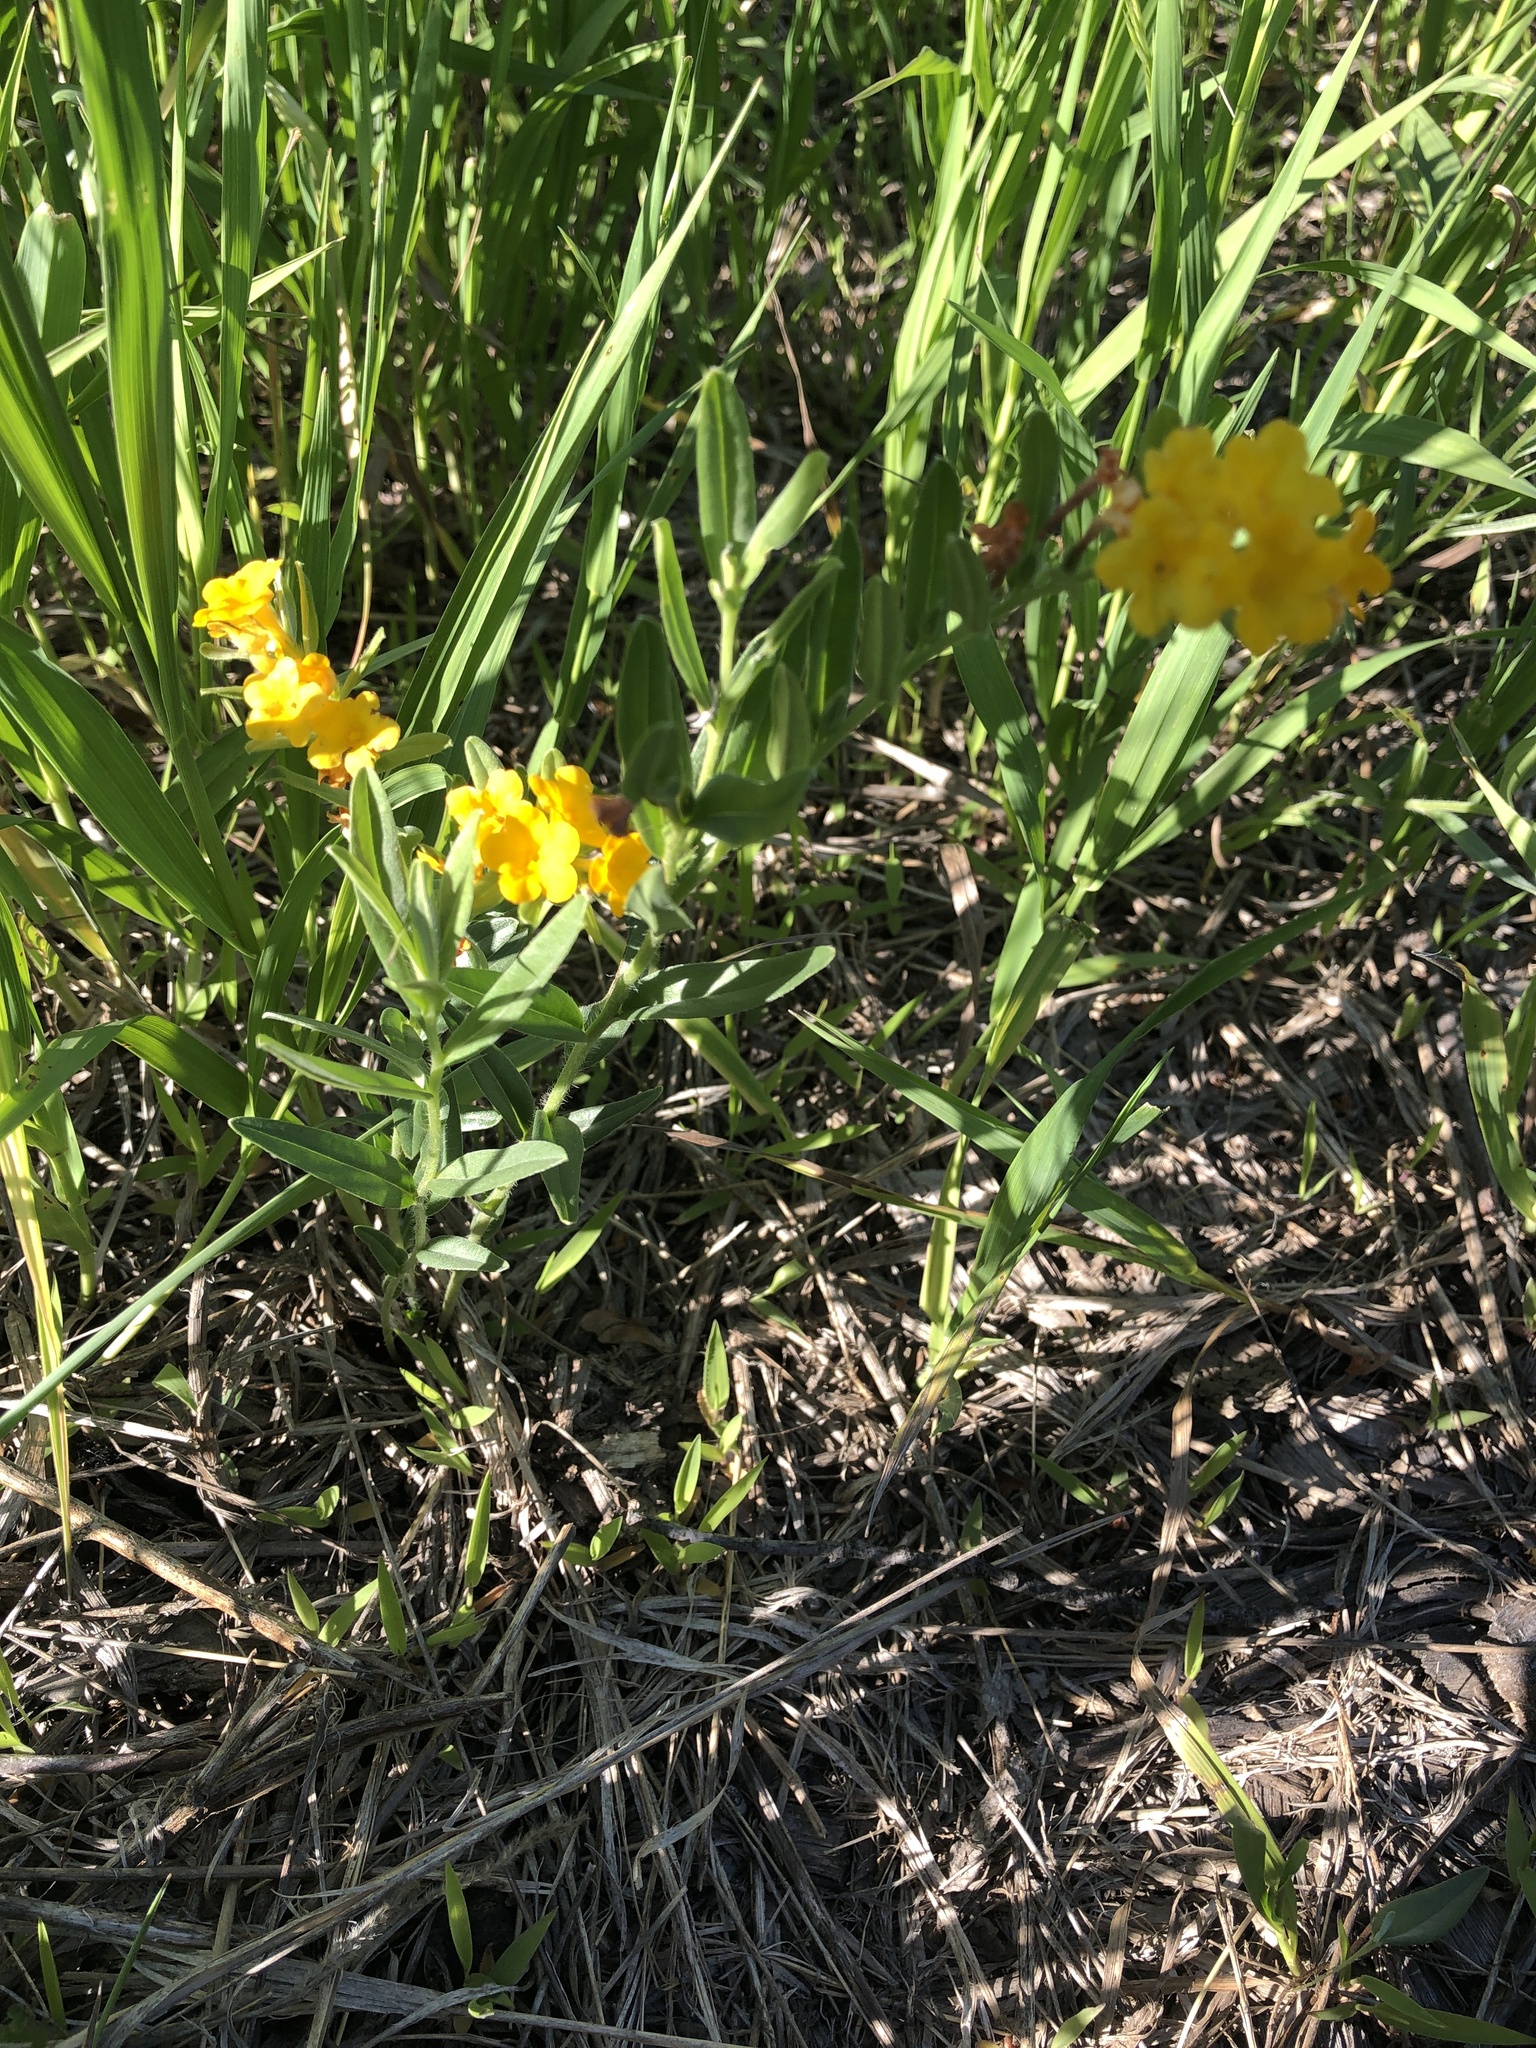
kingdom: Plantae
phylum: Tracheophyta
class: Magnoliopsida
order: Boraginales
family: Boraginaceae
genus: Lithospermum
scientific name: Lithospermum canescens
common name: Hoary puccoon
